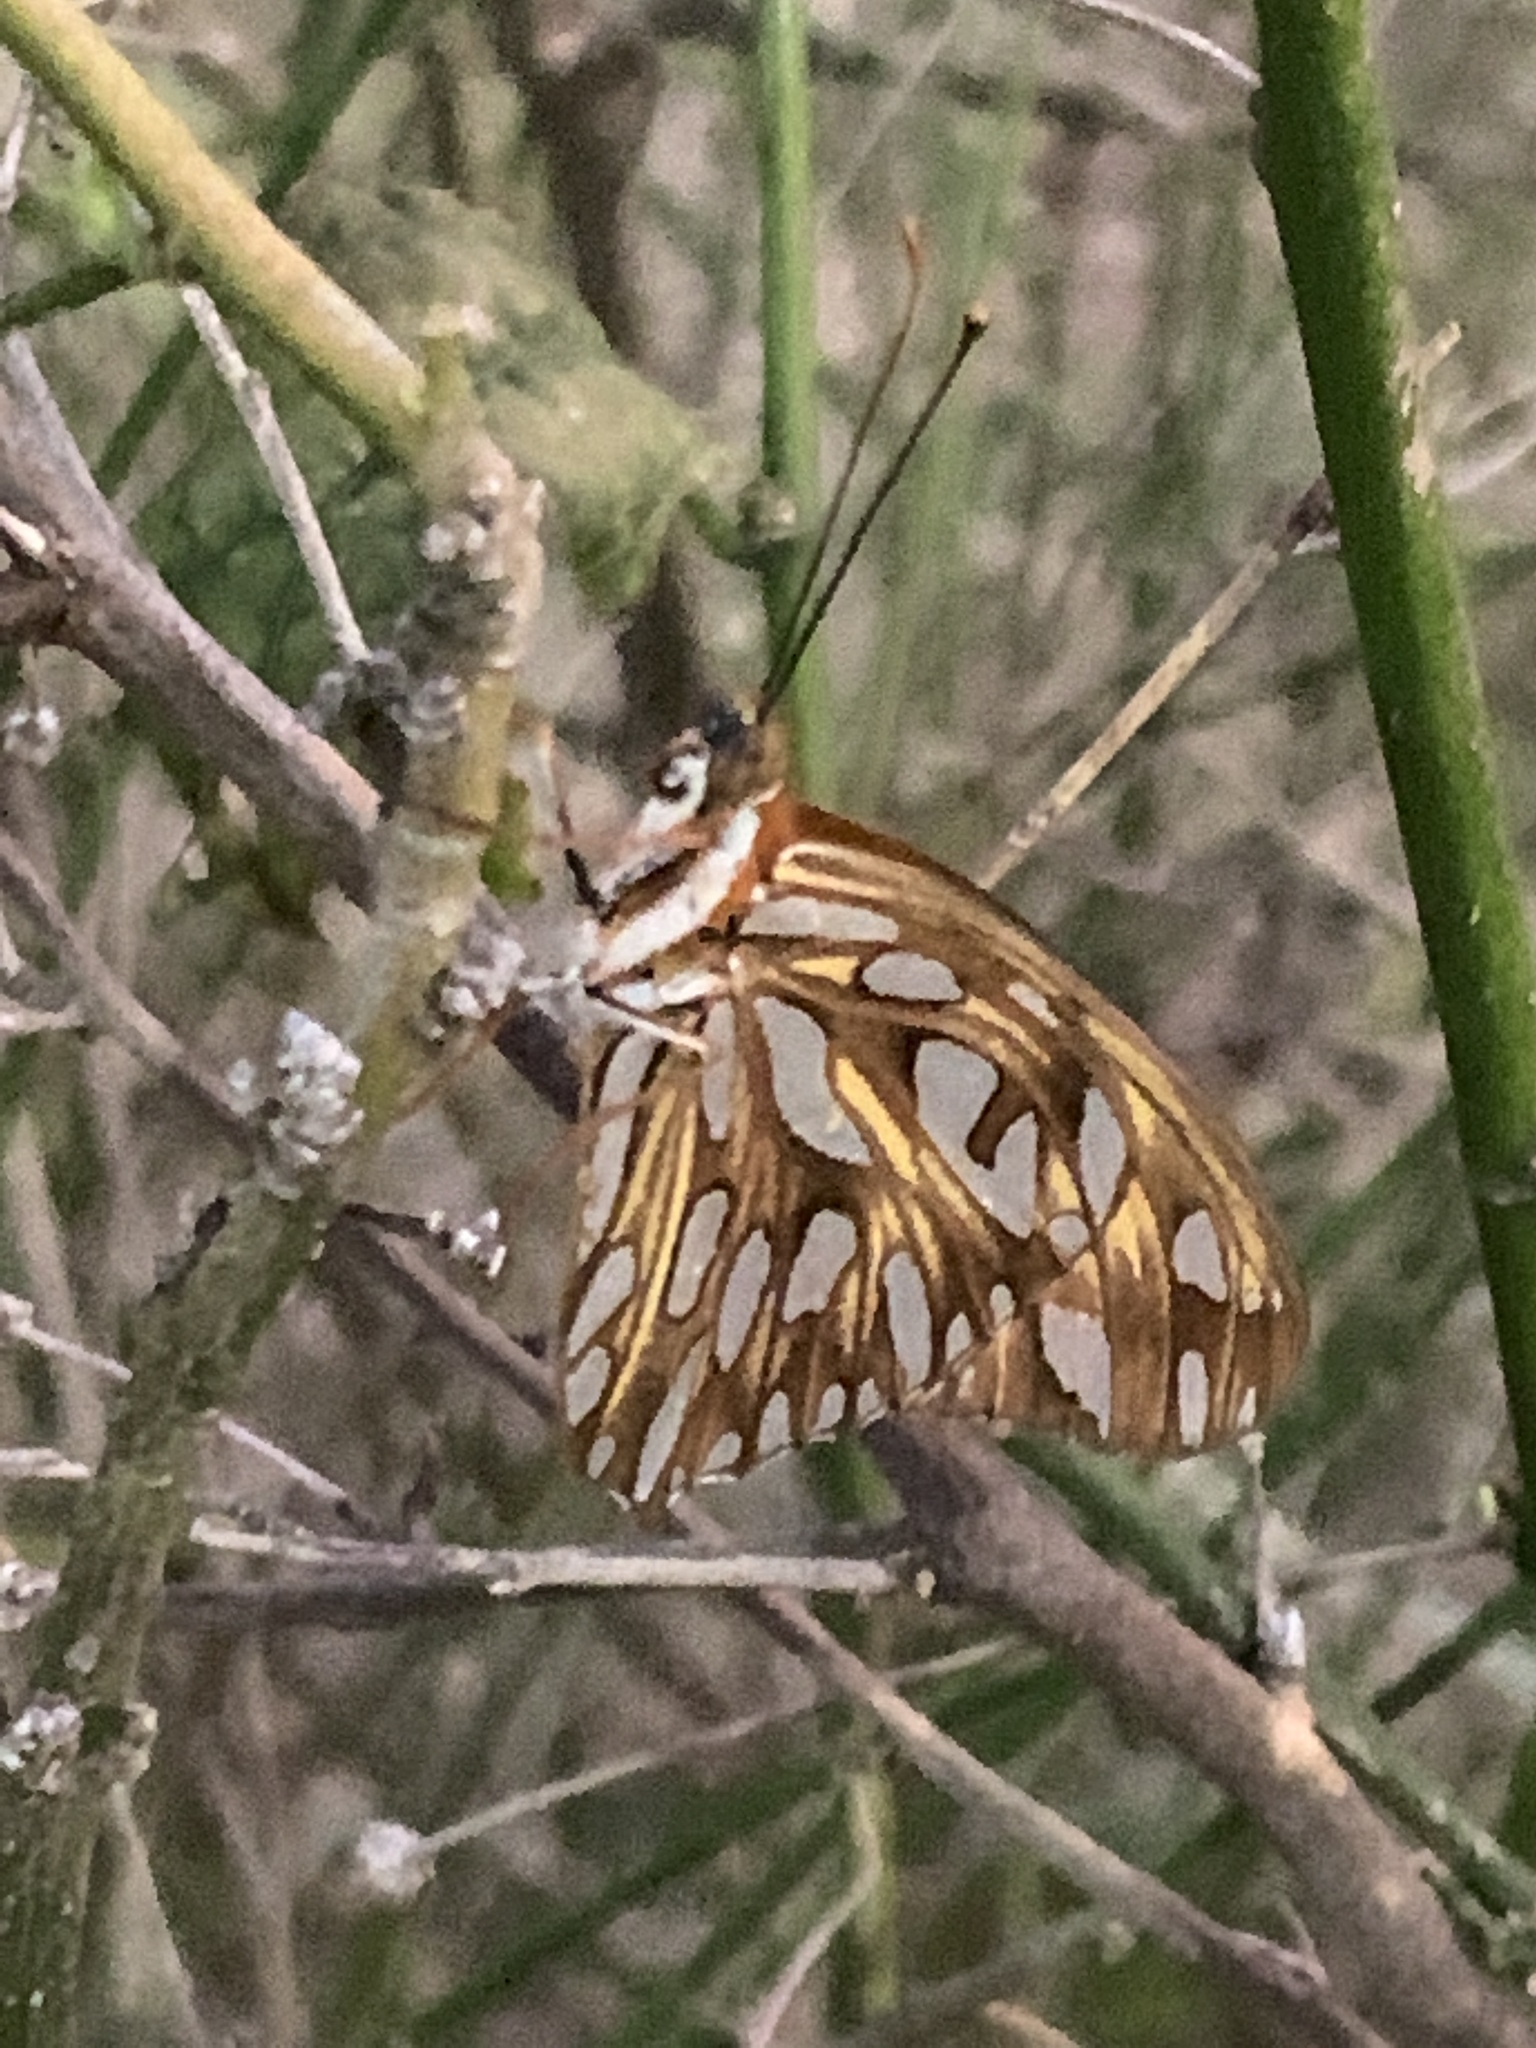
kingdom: Animalia
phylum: Arthropoda
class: Insecta
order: Lepidoptera
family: Nymphalidae
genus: Dione
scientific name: Dione vanillae
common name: Gulf fritillary
